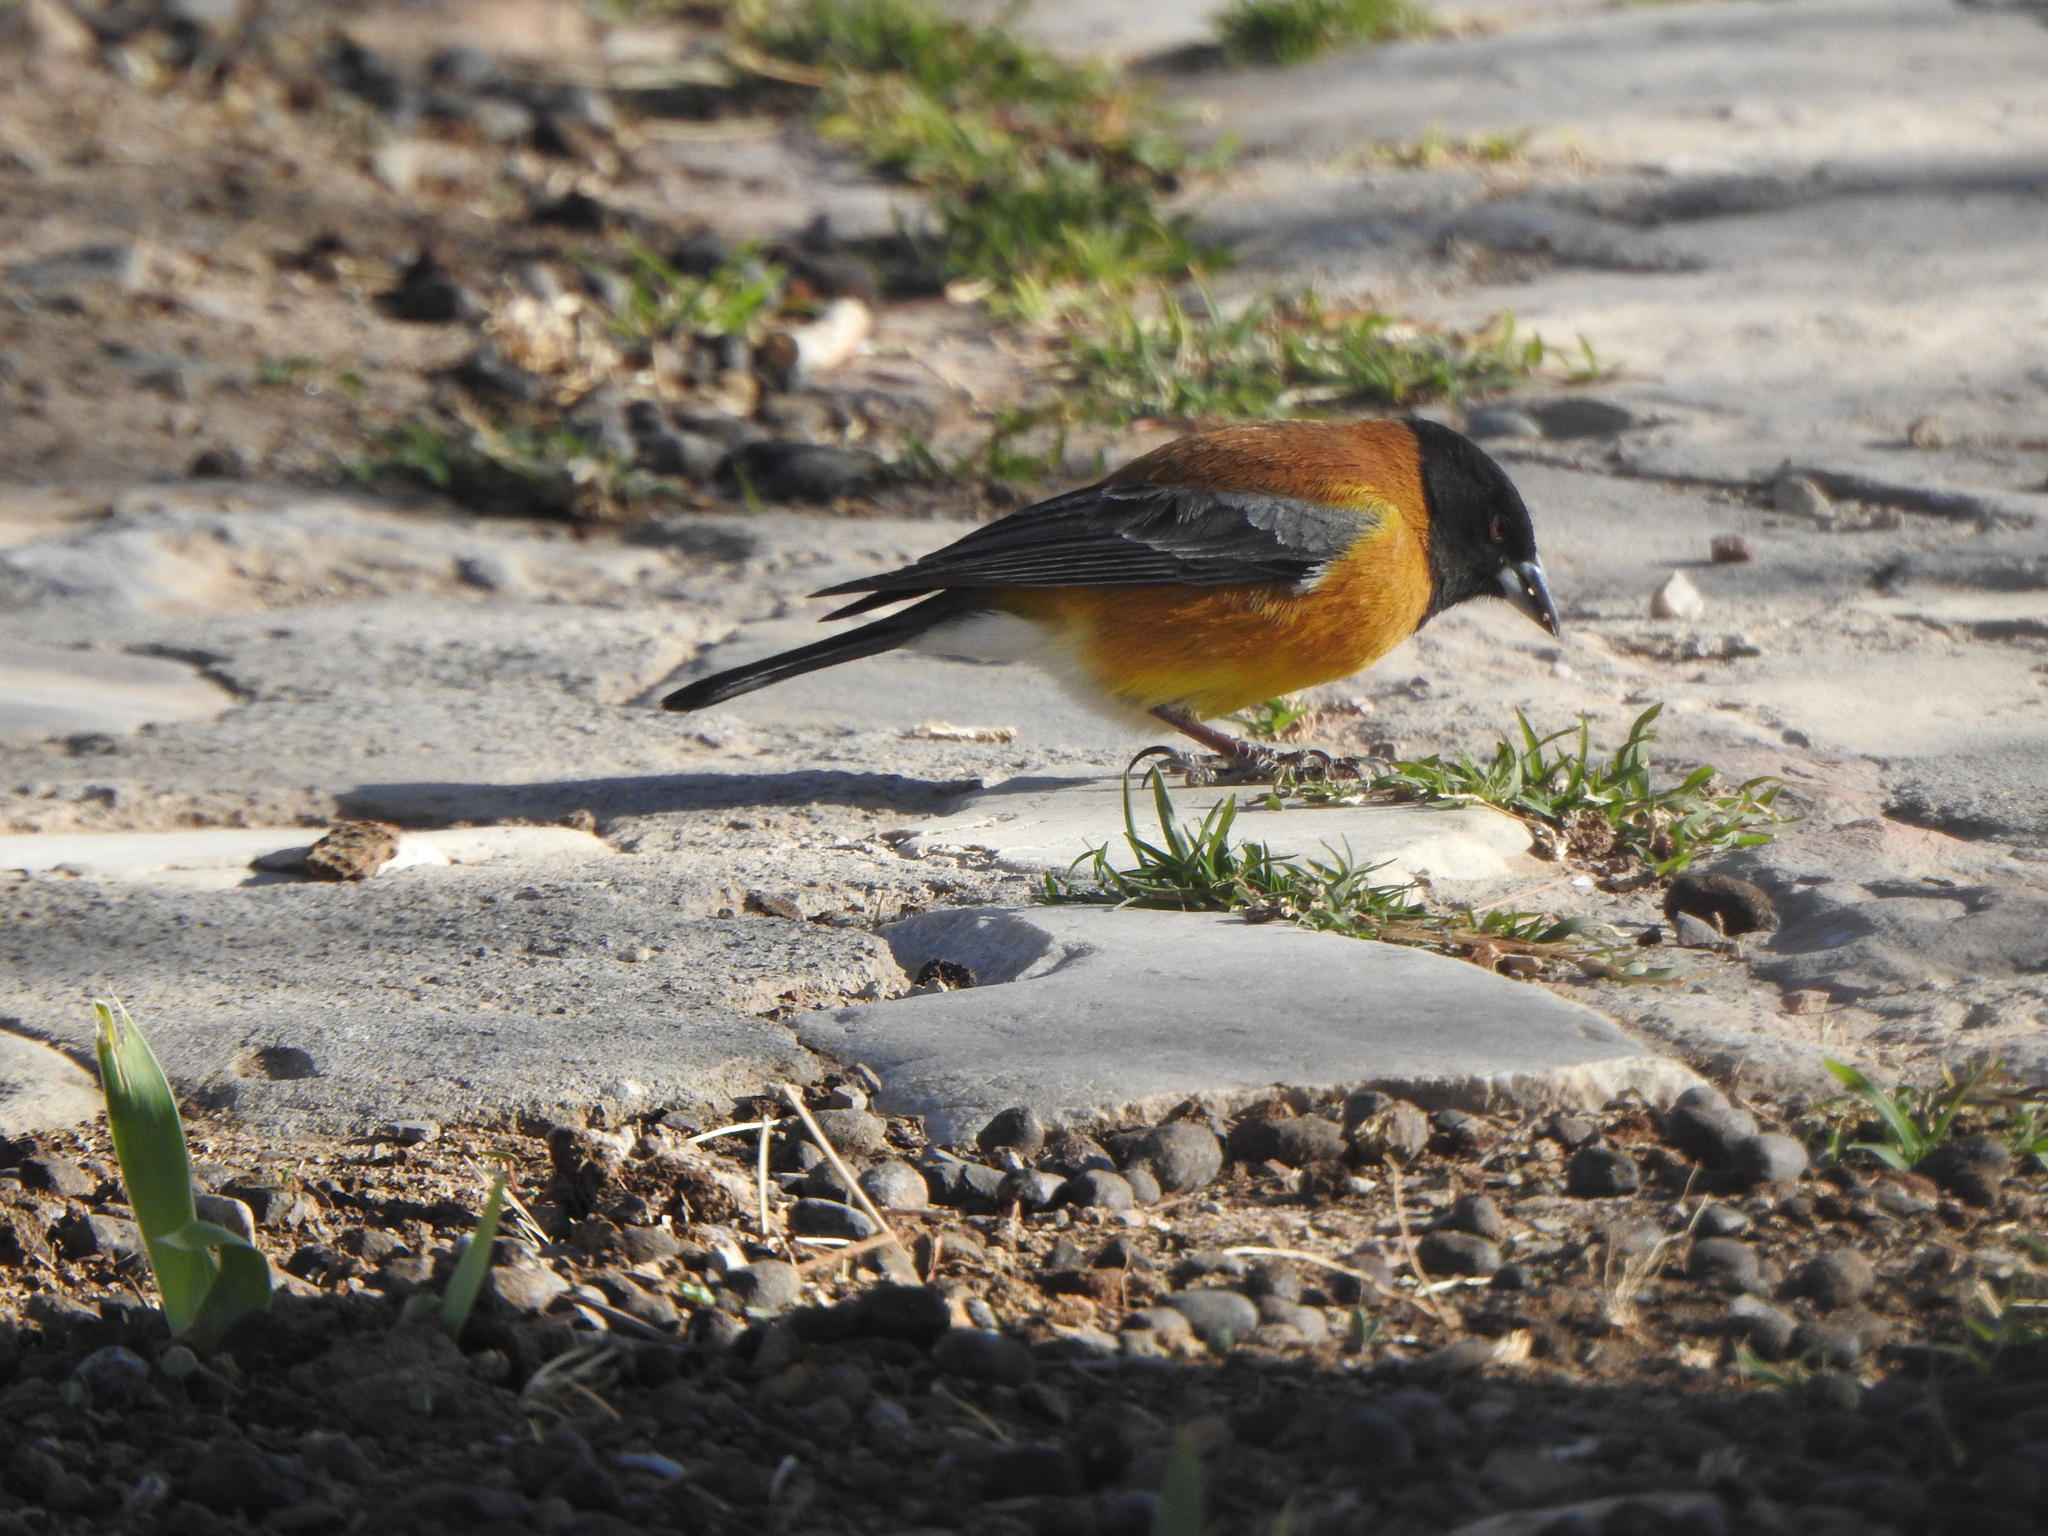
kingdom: Animalia
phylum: Chordata
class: Aves
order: Passeriformes
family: Thraupidae
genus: Phrygilus
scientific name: Phrygilus atriceps
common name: Black-hooded sierra finch
